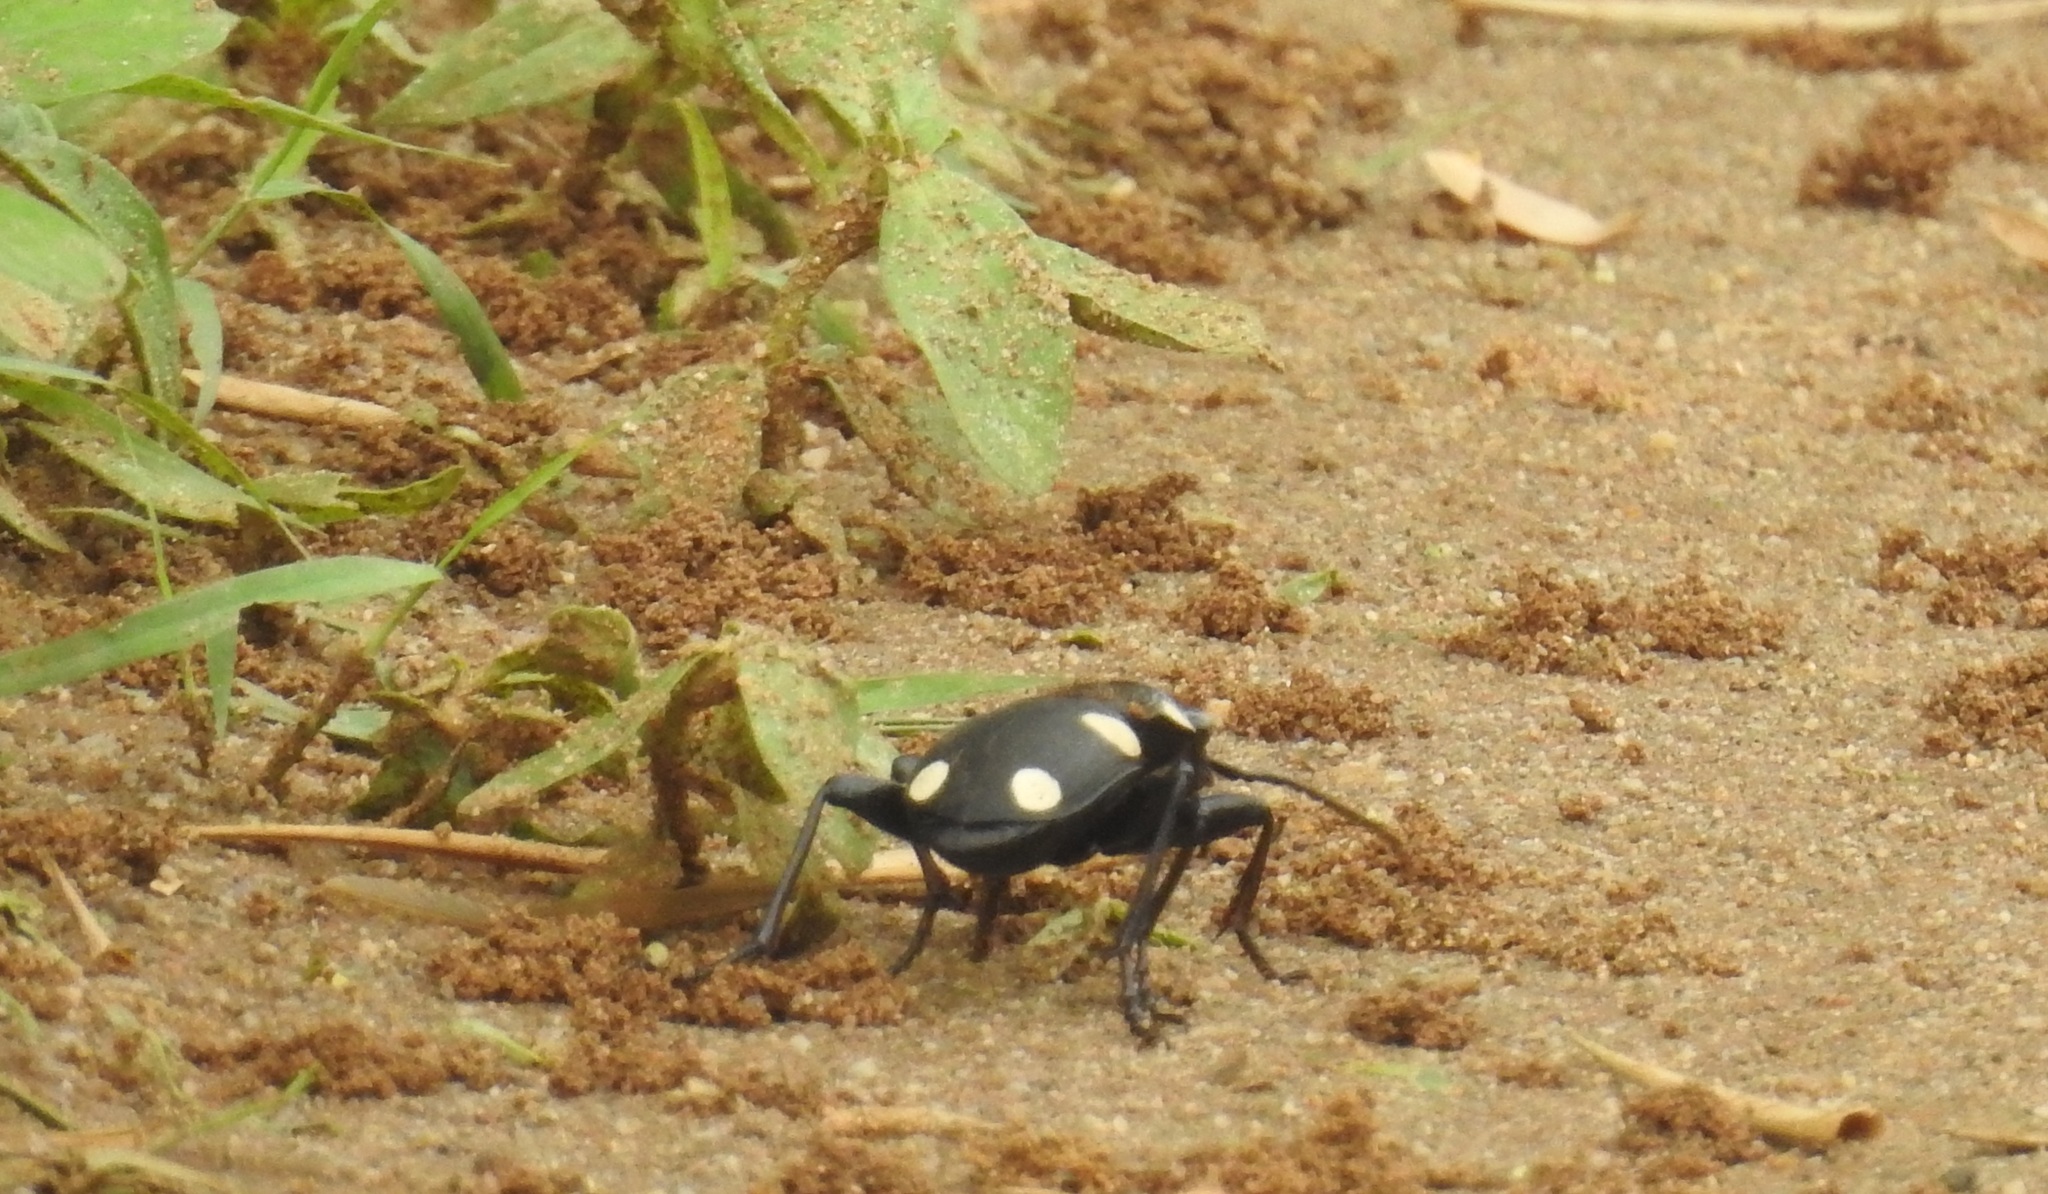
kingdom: Animalia
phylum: Arthropoda
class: Insecta
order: Coleoptera
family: Carabidae
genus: Anthia
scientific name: Anthia sexguttata
